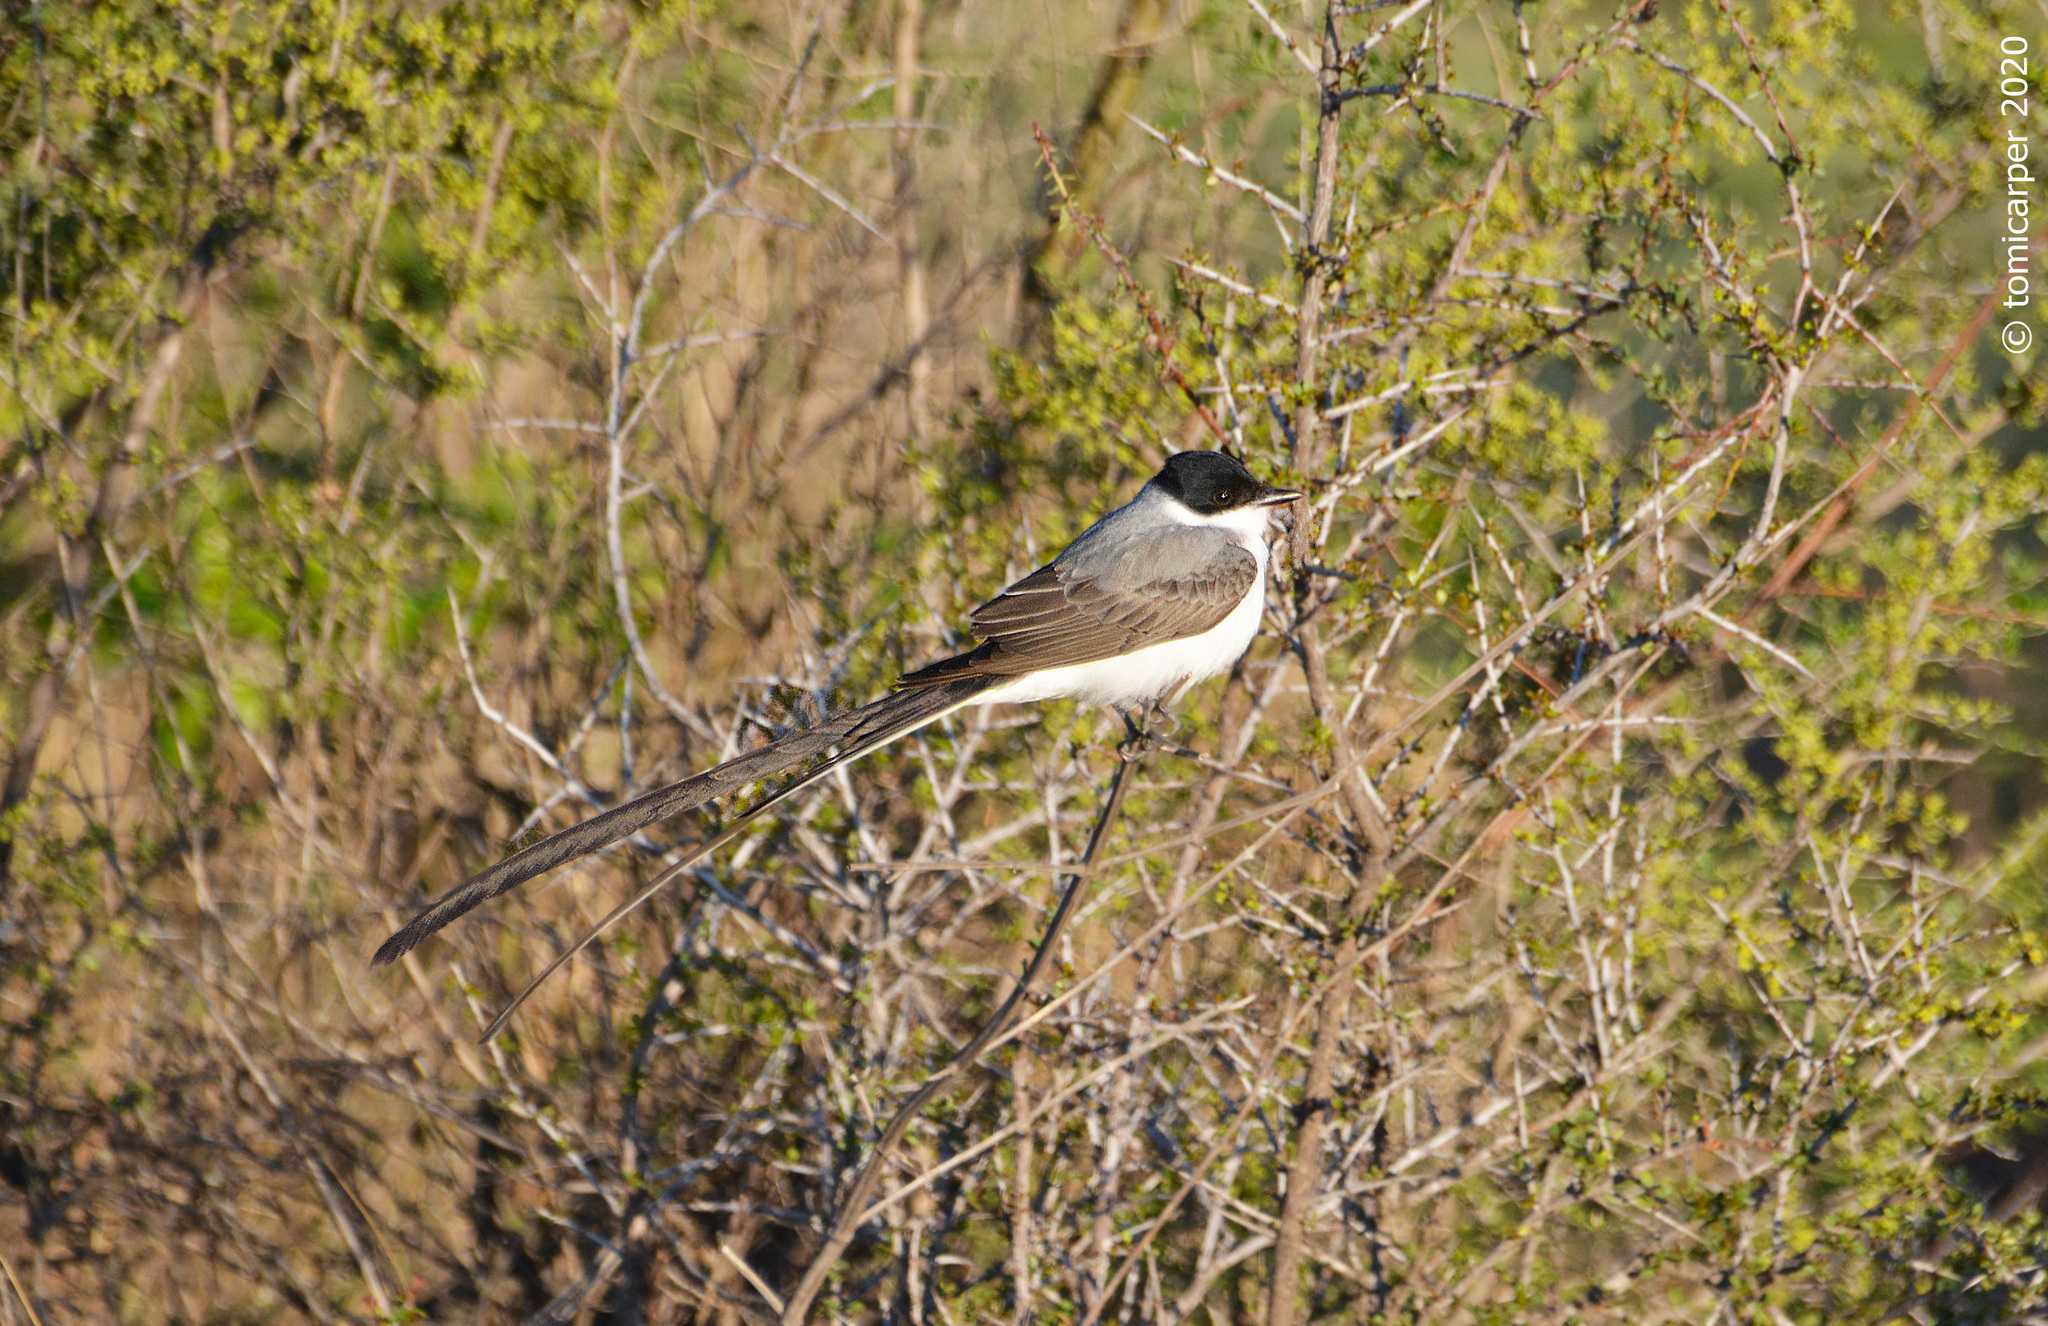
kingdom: Animalia
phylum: Chordata
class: Aves
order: Passeriformes
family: Tyrannidae
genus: Tyrannus
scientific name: Tyrannus savana
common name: Fork-tailed flycatcher
